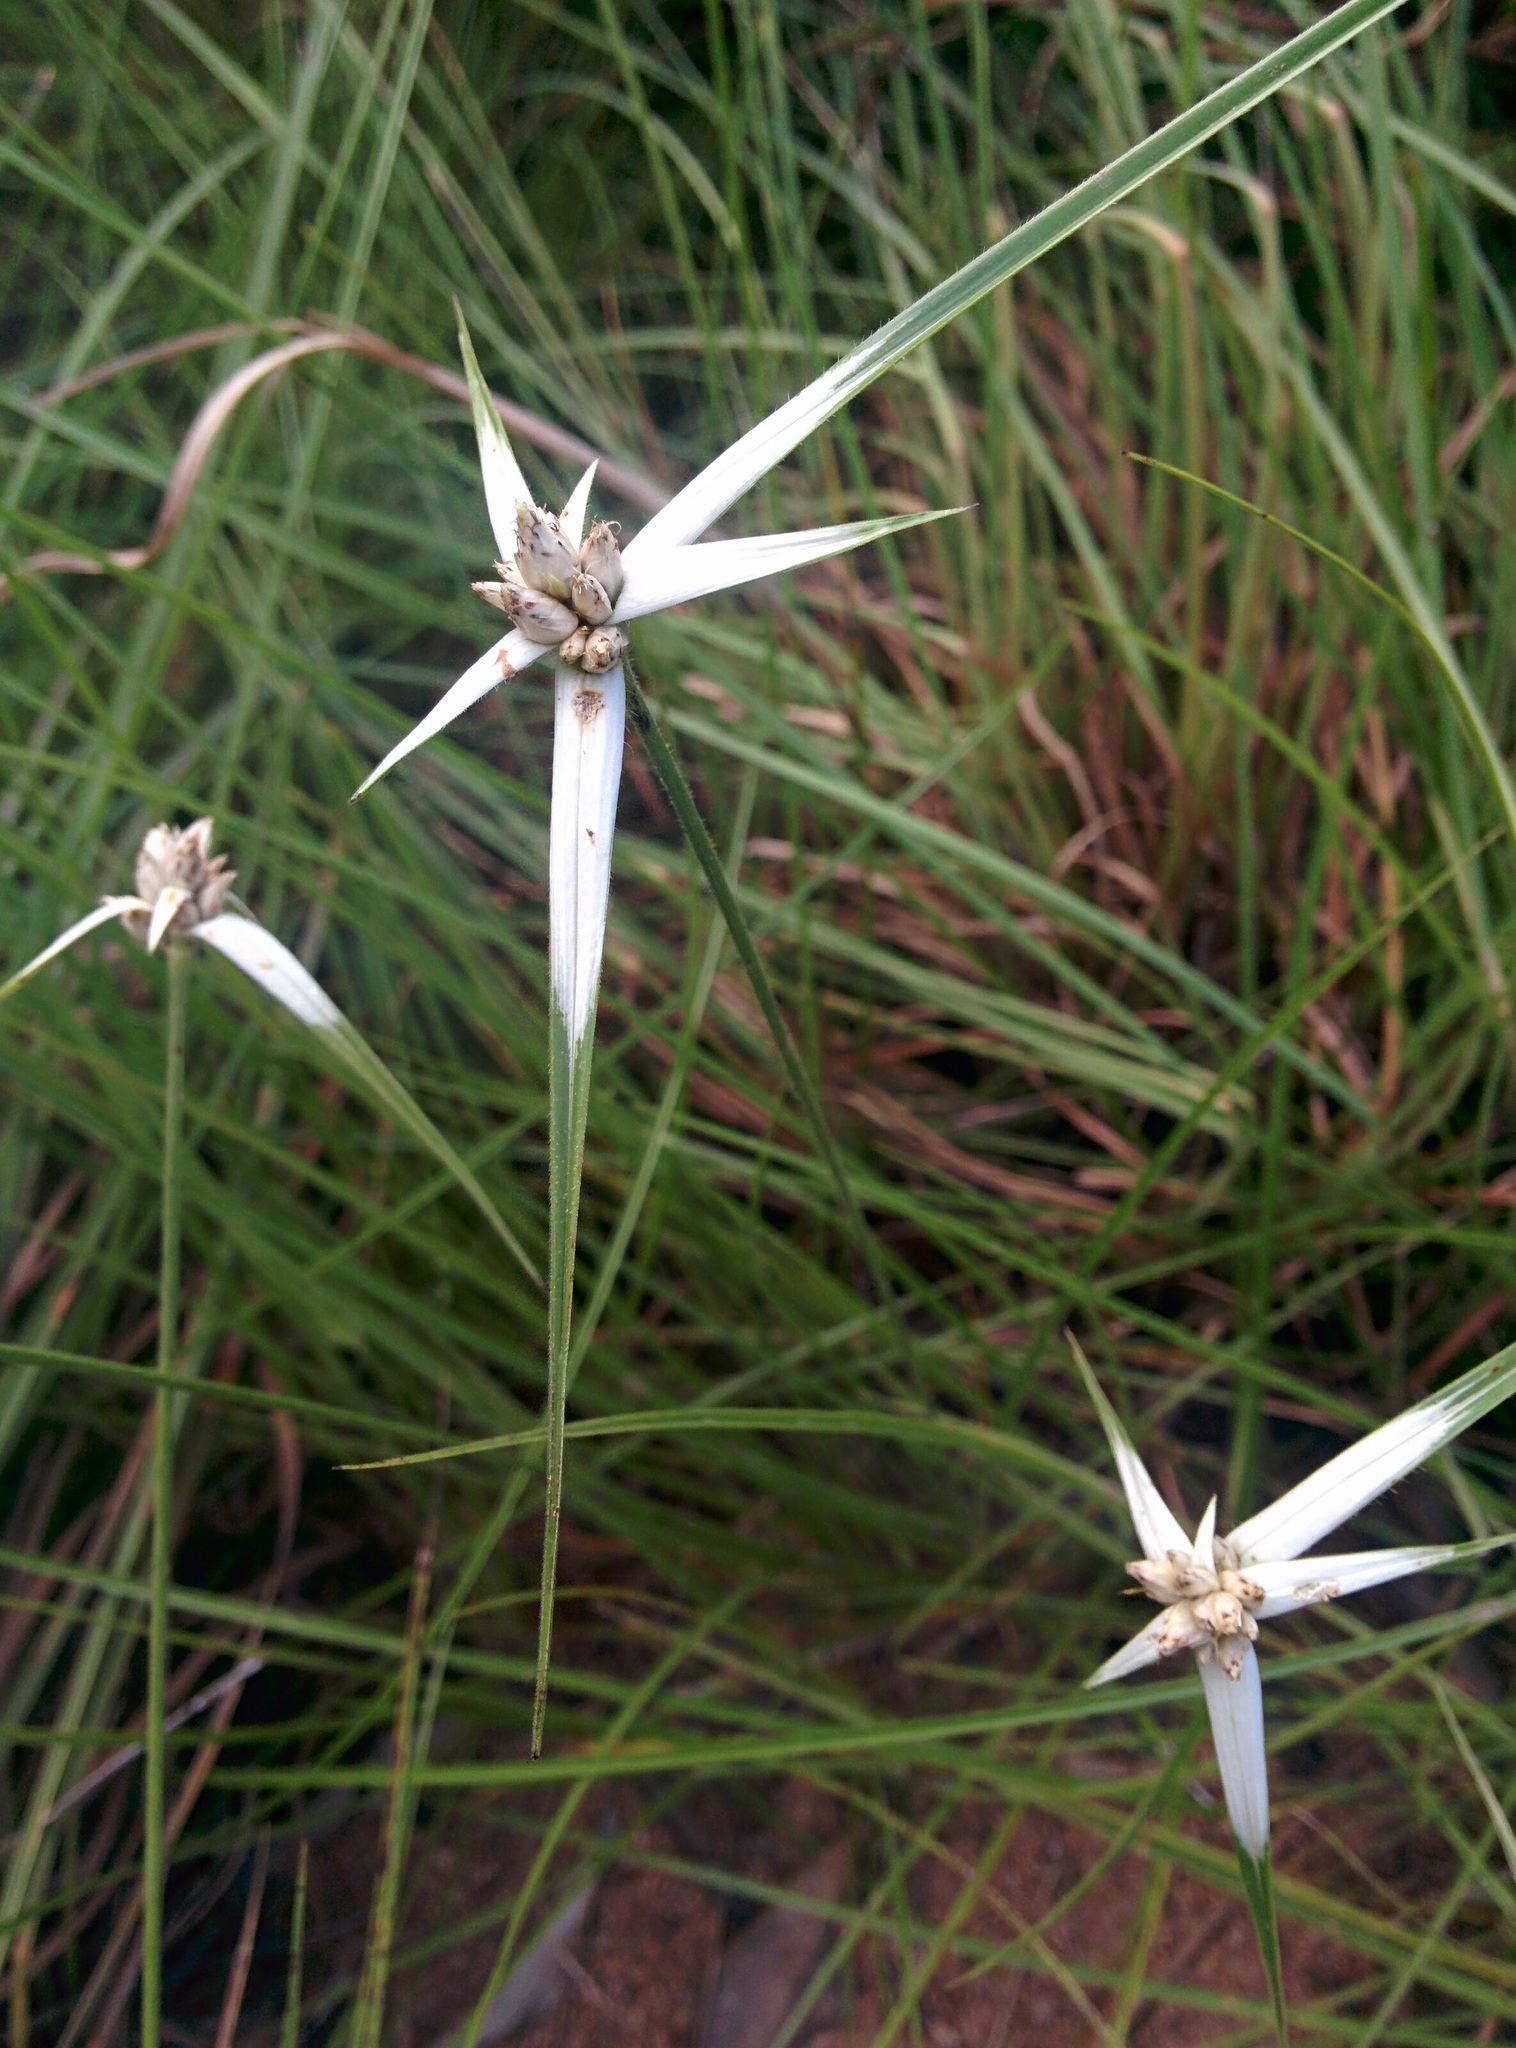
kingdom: Plantae
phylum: Tracheophyta
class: Liliopsida
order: Poales
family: Cyperaceae
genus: Rhynchospora
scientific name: Rhynchospora nervosa
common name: Star sedge
